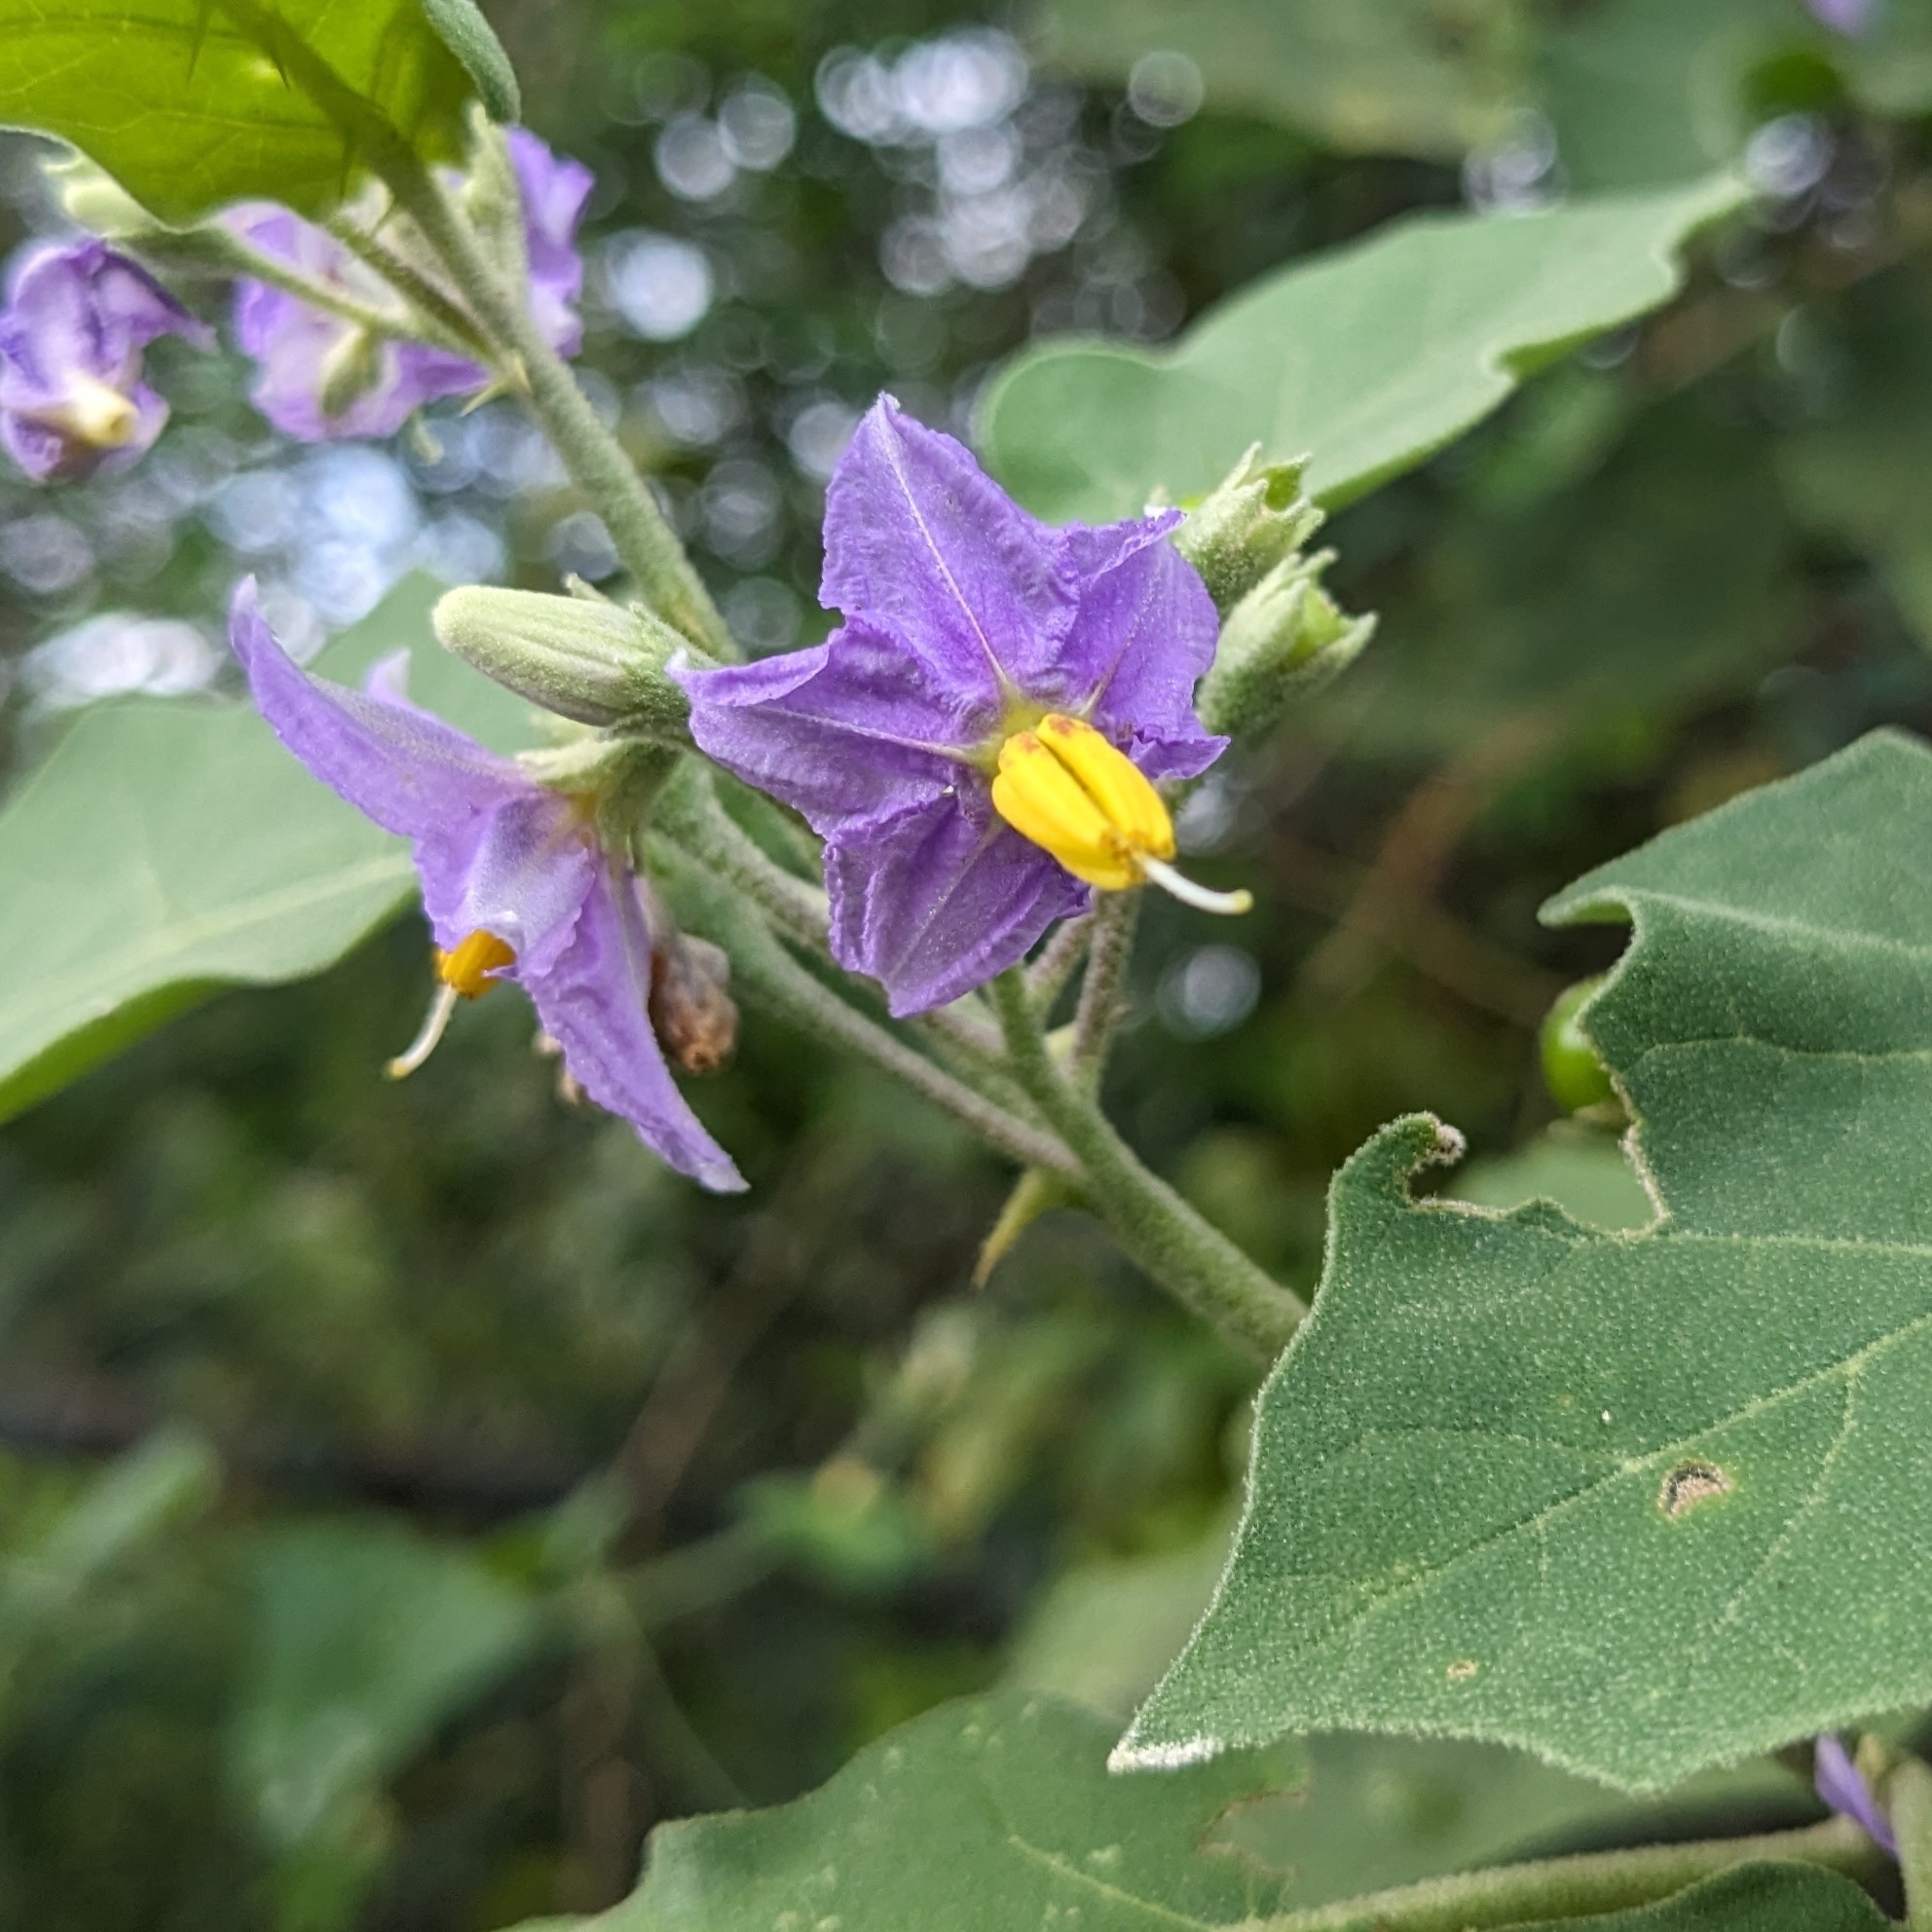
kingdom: Plantae
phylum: Tracheophyta
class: Magnoliopsida
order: Solanales
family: Solanaceae
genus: Solanum
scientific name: Solanum violaceum
